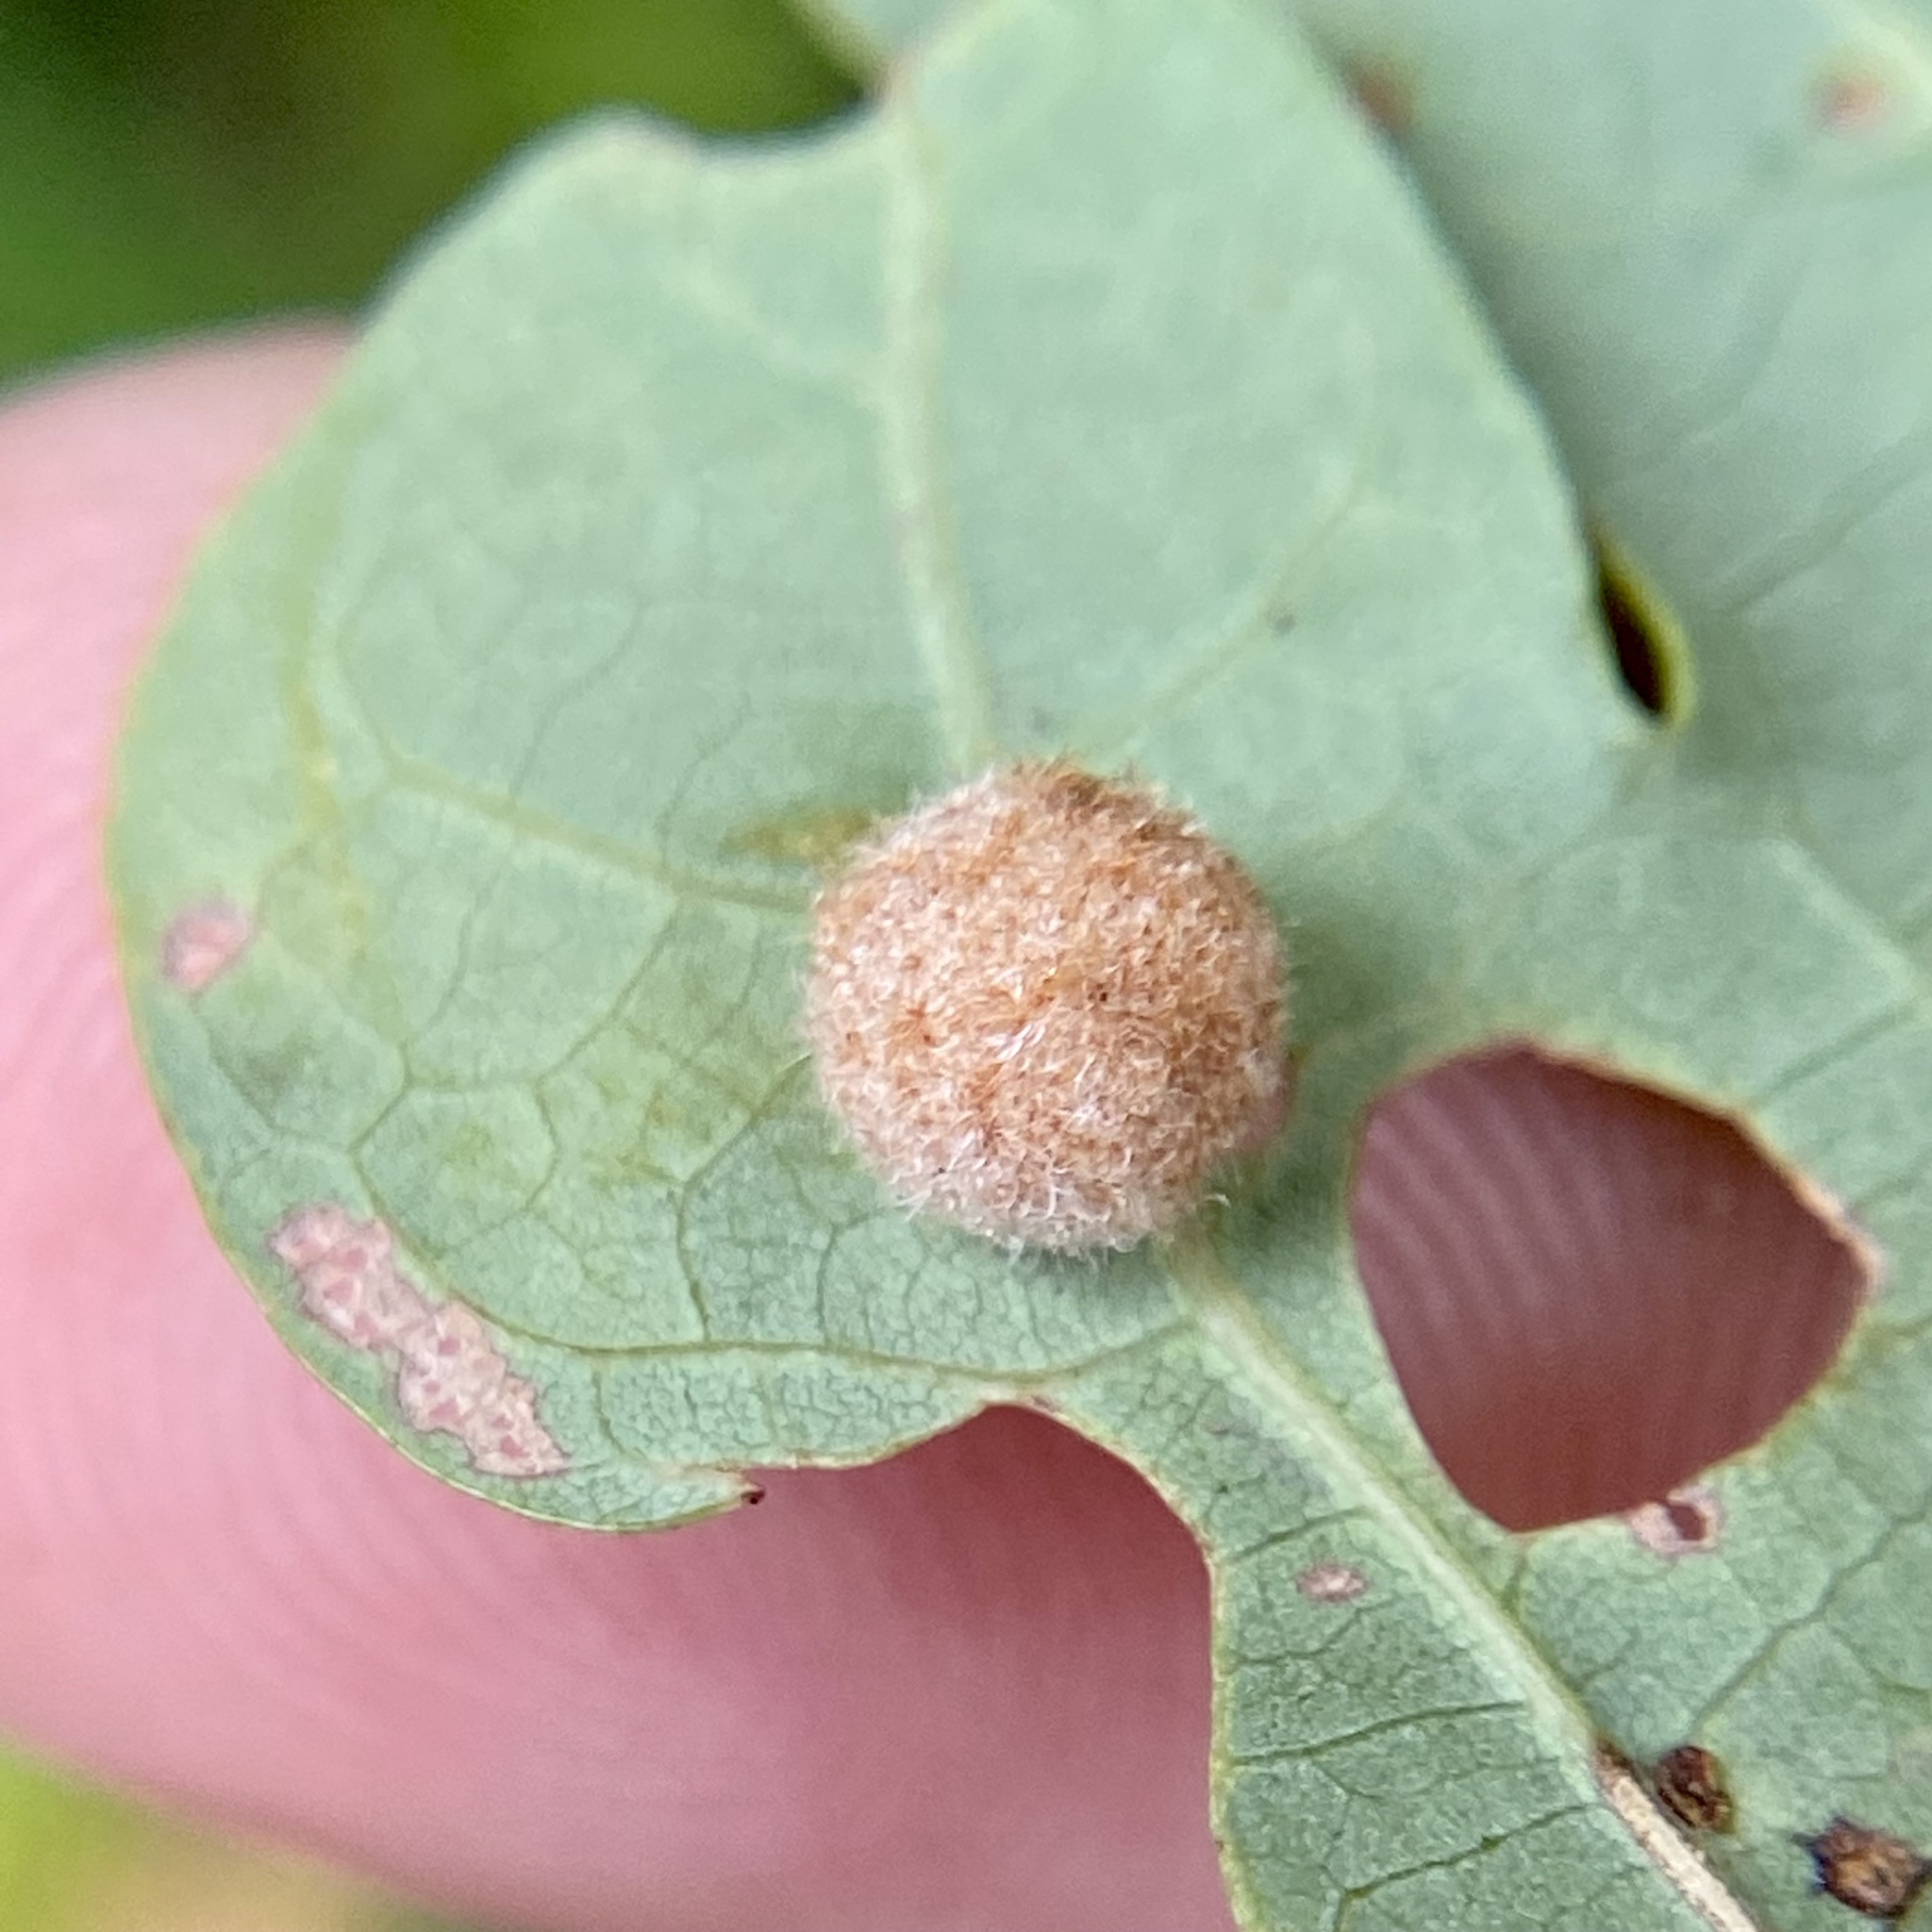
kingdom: Animalia
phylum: Arthropoda
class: Insecta
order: Hymenoptera
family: Cynipidae
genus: Philonix
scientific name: Philonix fulvicollis
